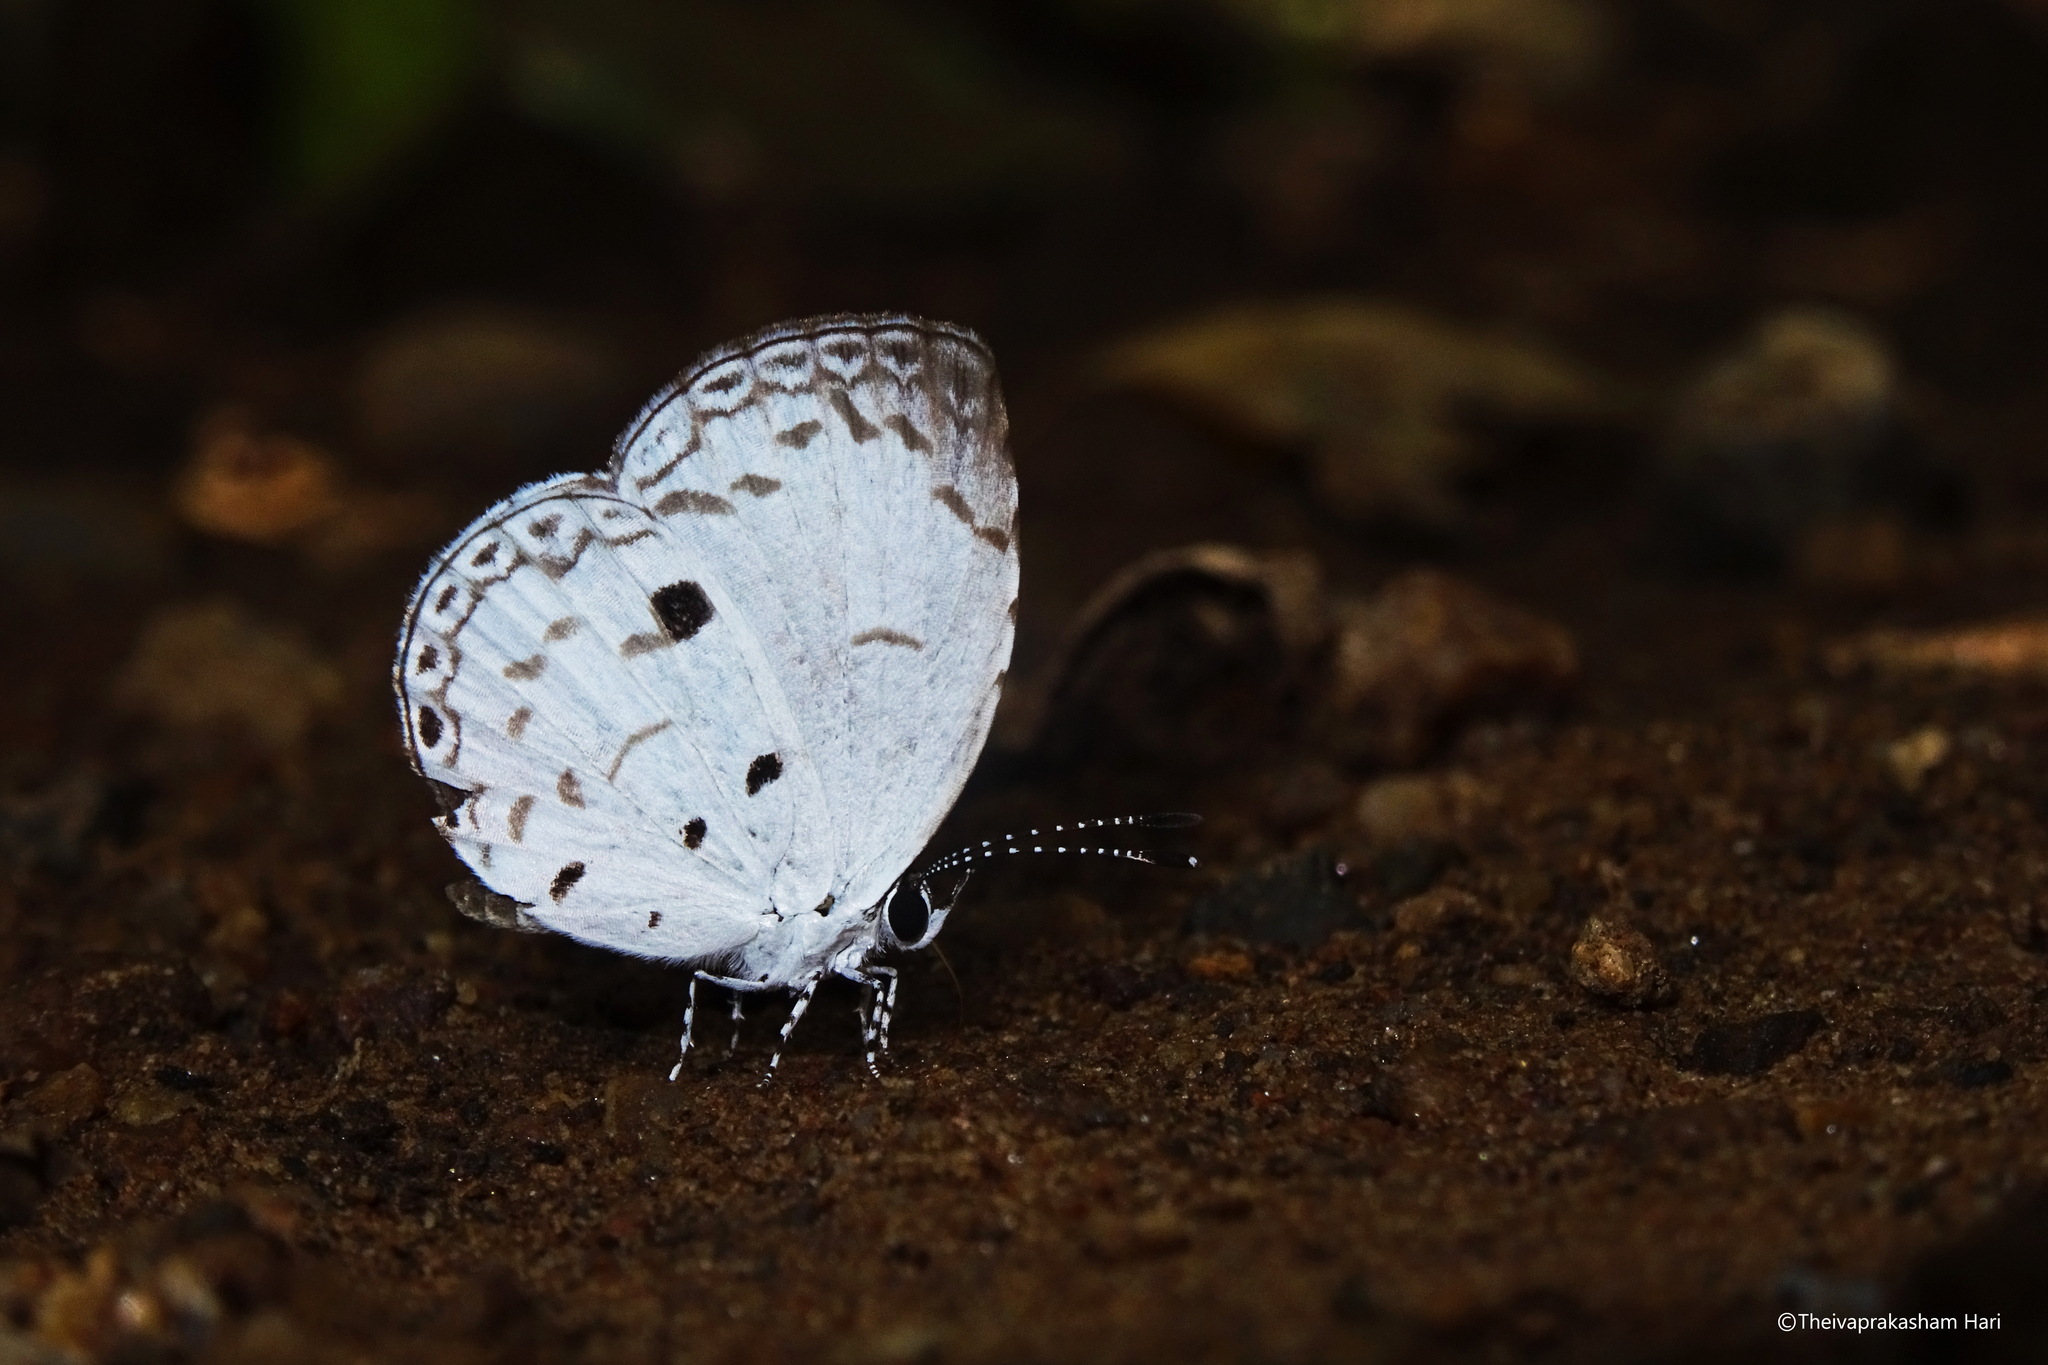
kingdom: Animalia
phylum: Arthropoda
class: Insecta
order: Lepidoptera
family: Lycaenidae
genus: Neopithecops
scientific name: Neopithecops zalmora
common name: Quaker
